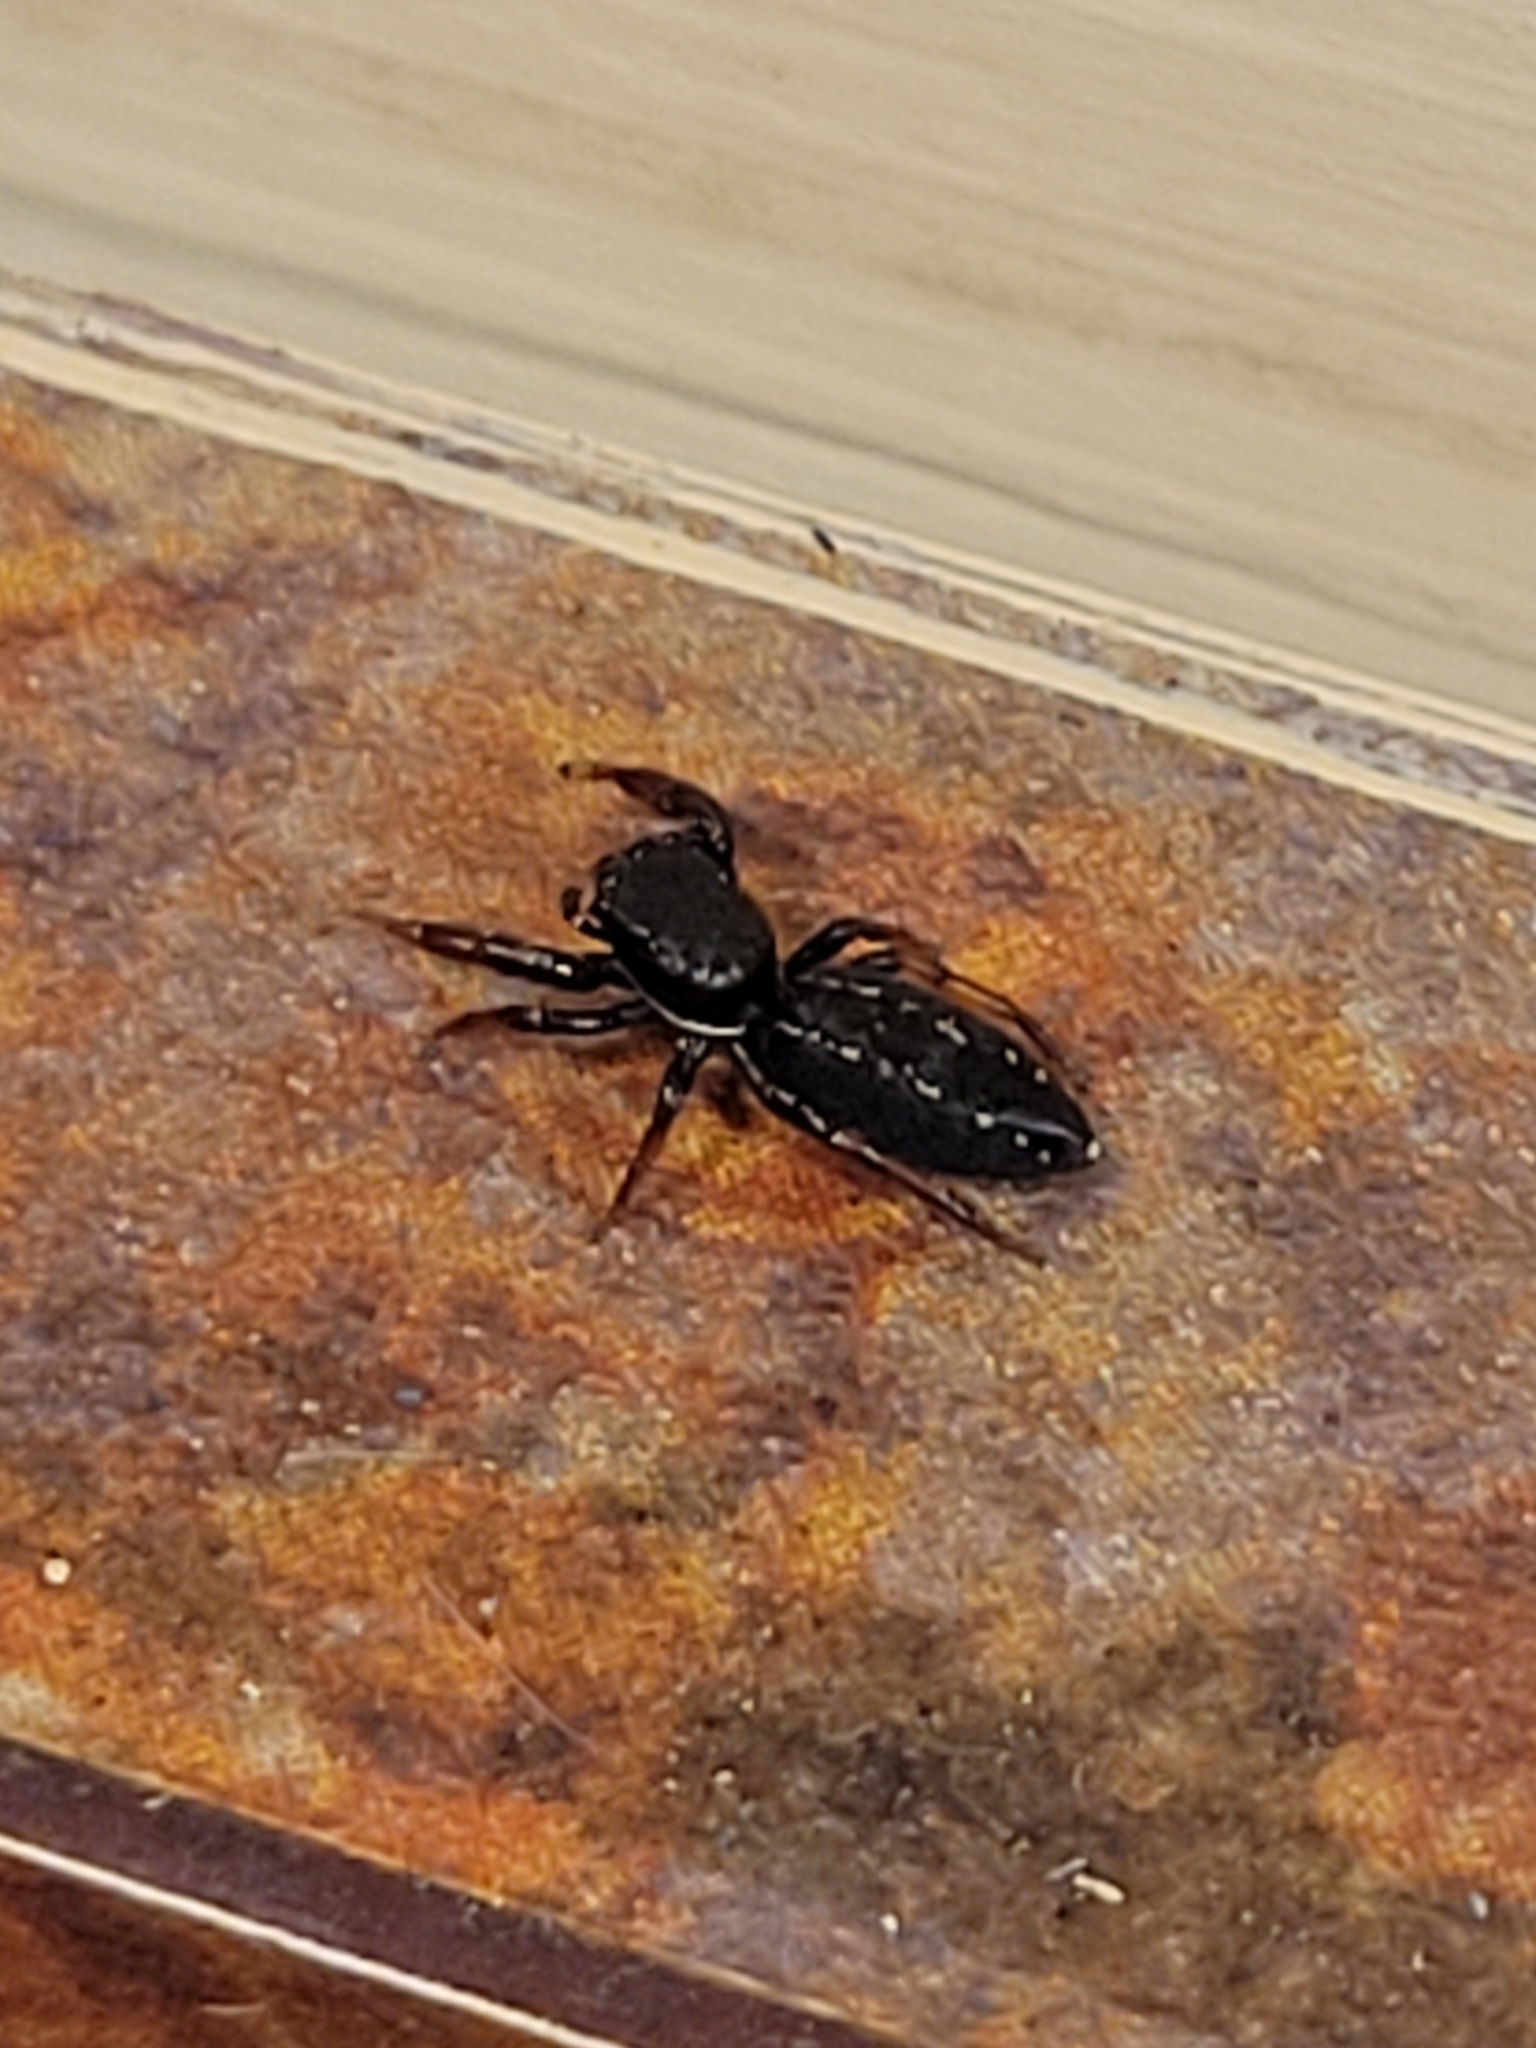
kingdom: Animalia
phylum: Arthropoda
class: Arachnida
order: Araneae
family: Salticidae
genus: Metacyrba
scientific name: Metacyrba taeniola
